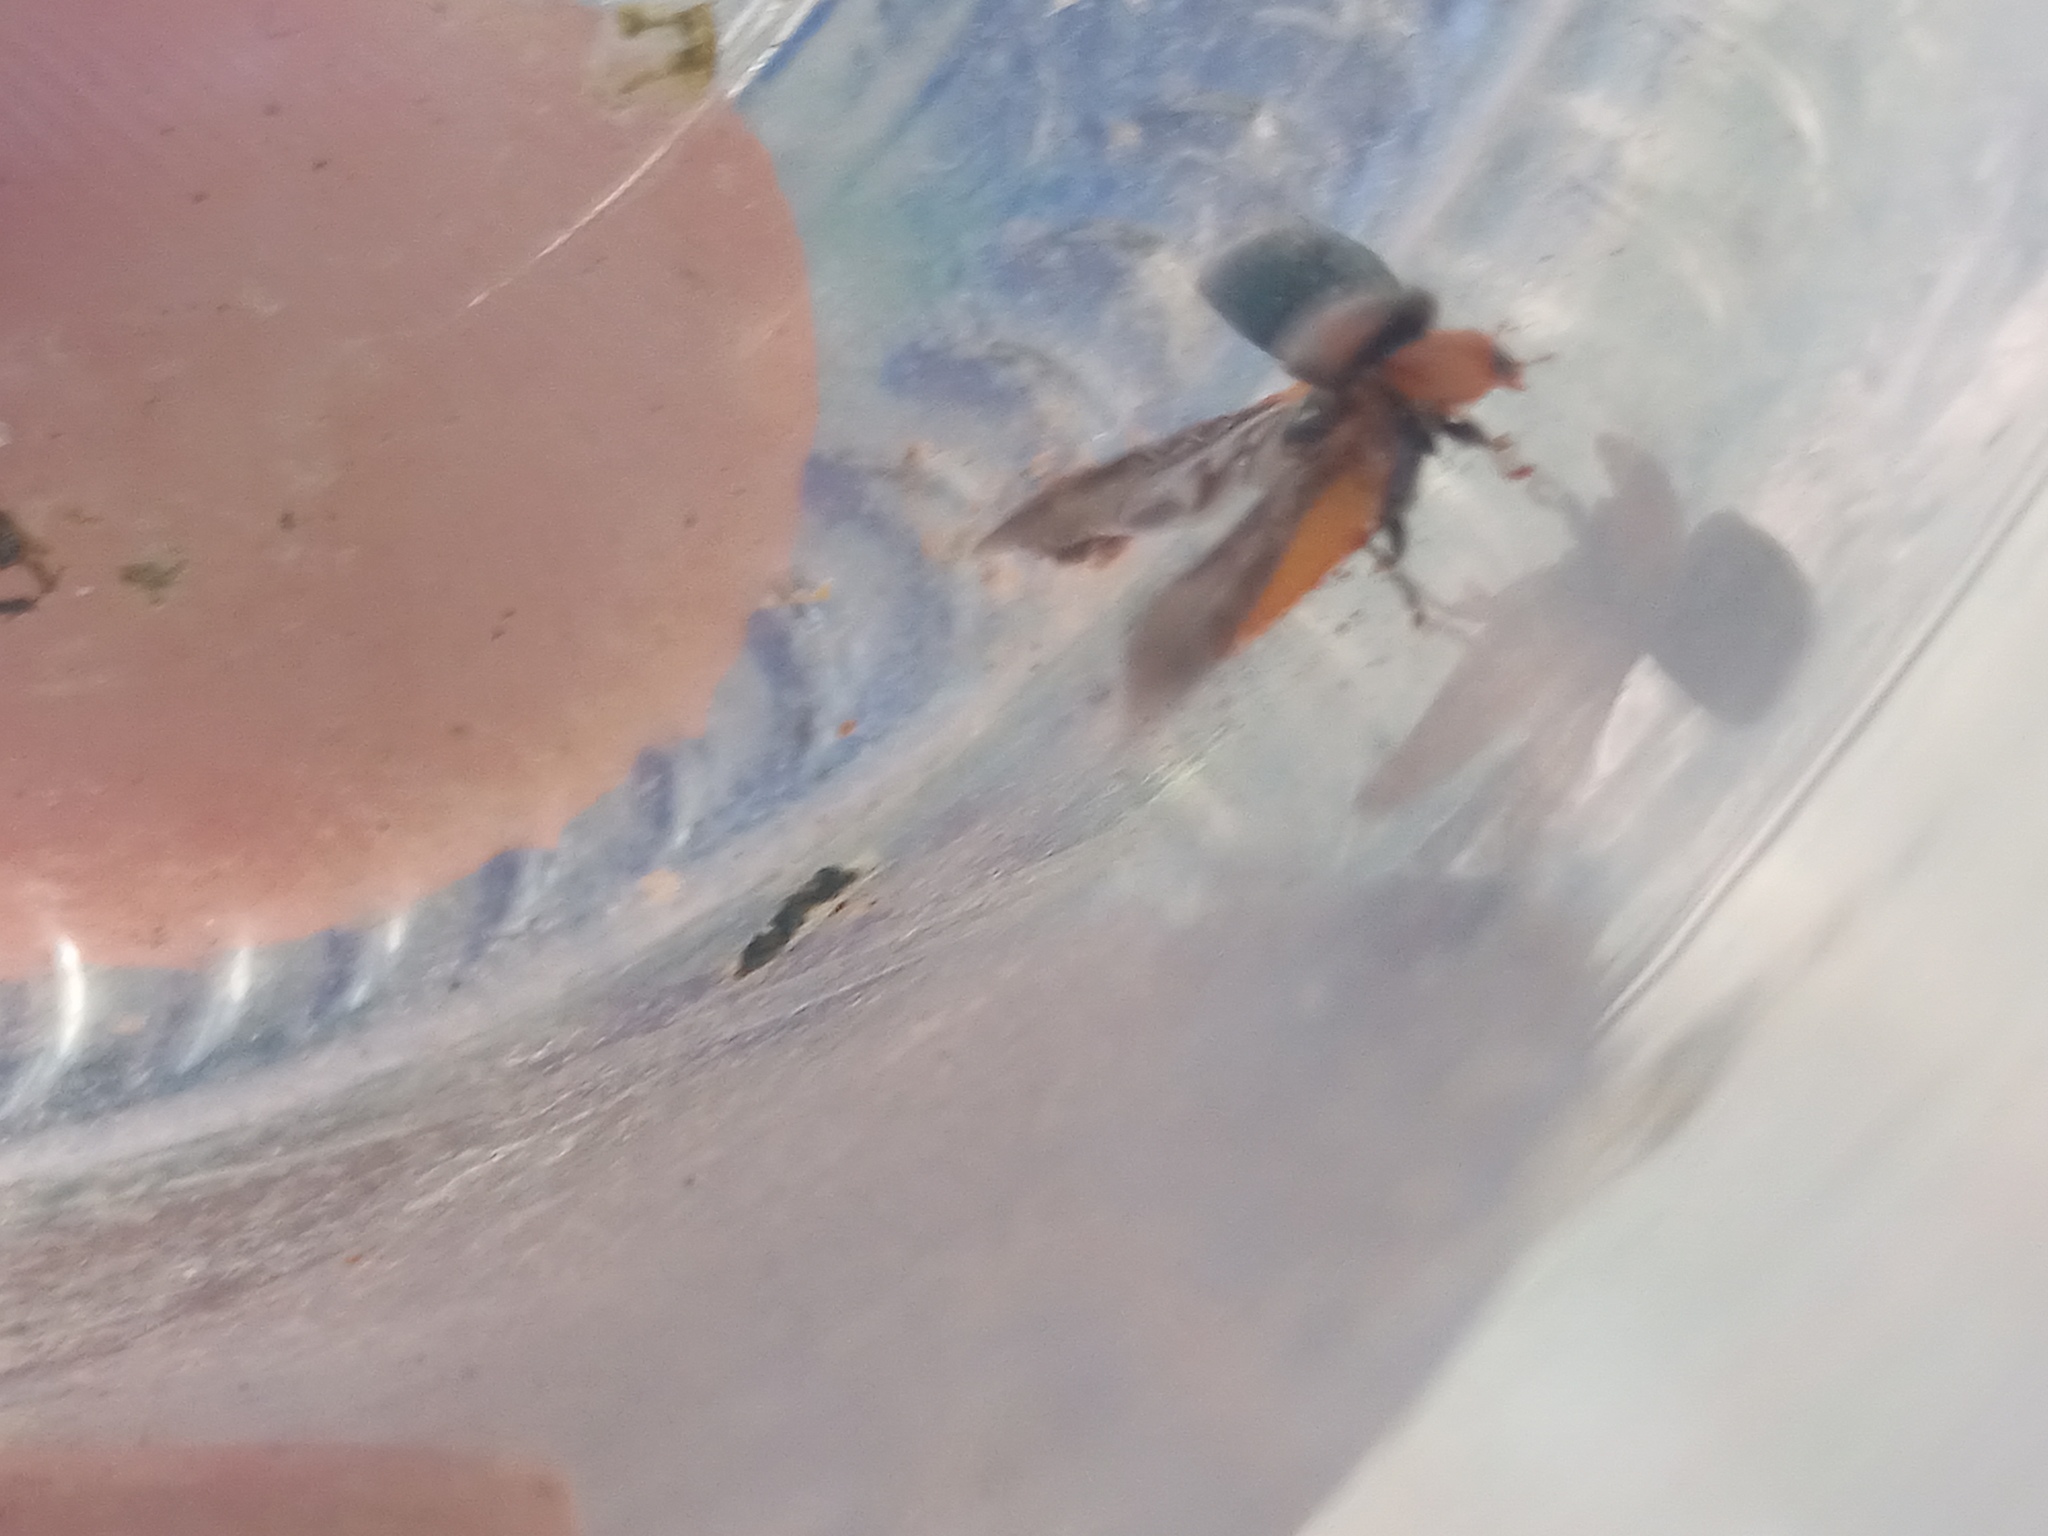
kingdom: Animalia
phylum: Arthropoda
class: Insecta
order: Coleoptera
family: Coccinellidae
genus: Cryptolaemus
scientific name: Cryptolaemus montrouzieri
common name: Mealybug destroyer
